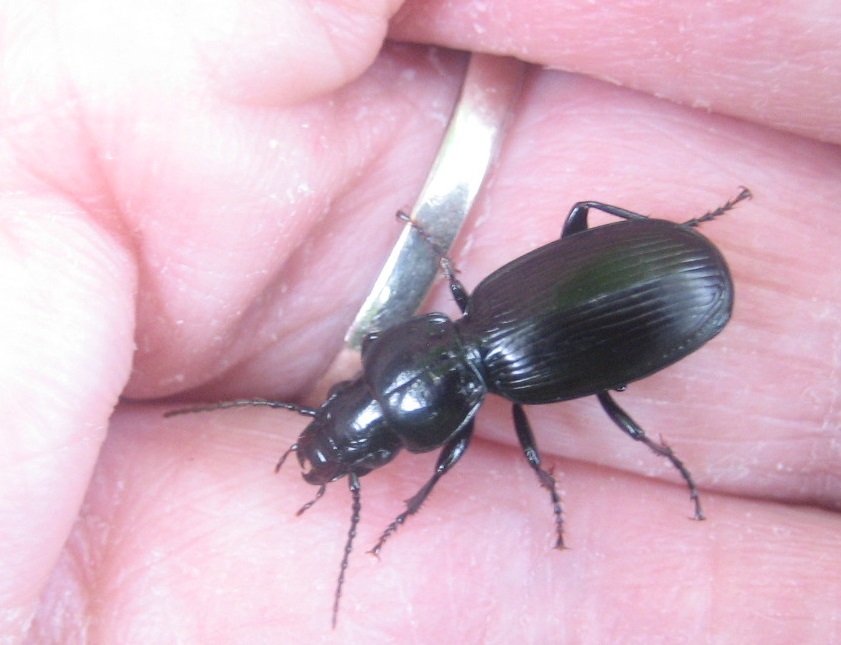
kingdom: Animalia
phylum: Arthropoda
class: Insecta
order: Coleoptera
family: Carabidae
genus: Pterostichus
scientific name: Pterostichus madidus
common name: Black clock
